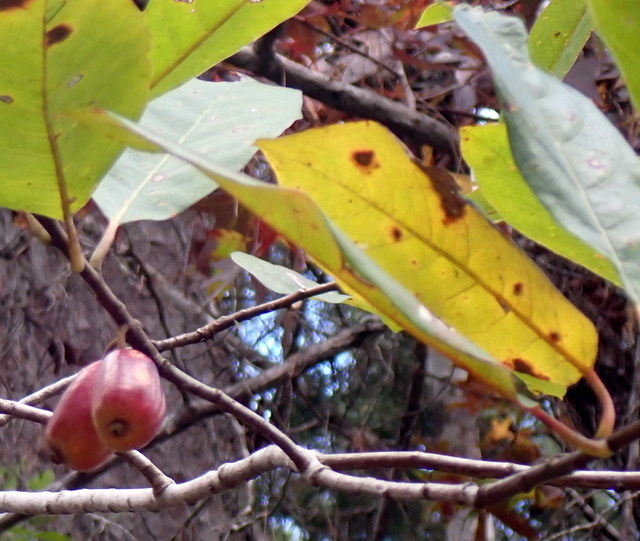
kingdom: Plantae
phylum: Tracheophyta
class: Magnoliopsida
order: Cornales
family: Nyssaceae
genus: Nyssa
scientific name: Nyssa ogeche
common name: Ogeechee tupelo
